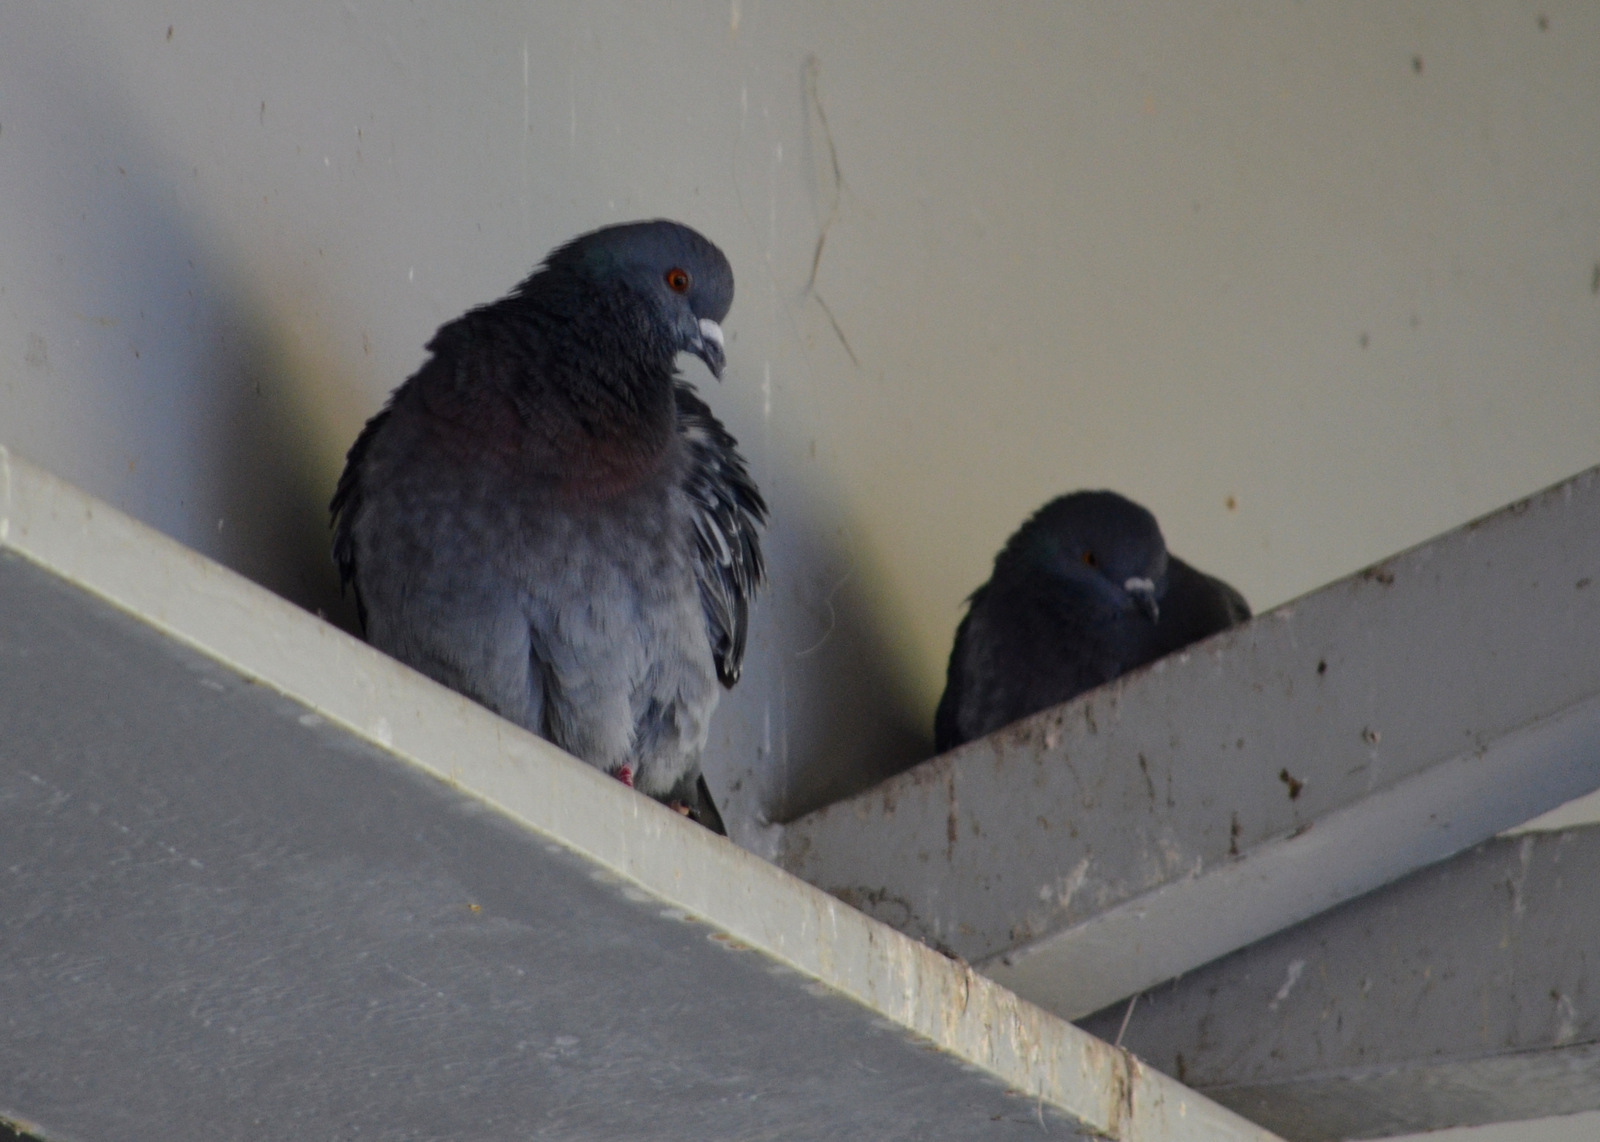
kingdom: Animalia
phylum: Chordata
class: Aves
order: Columbiformes
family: Columbidae
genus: Columba
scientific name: Columba livia
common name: Rock pigeon
